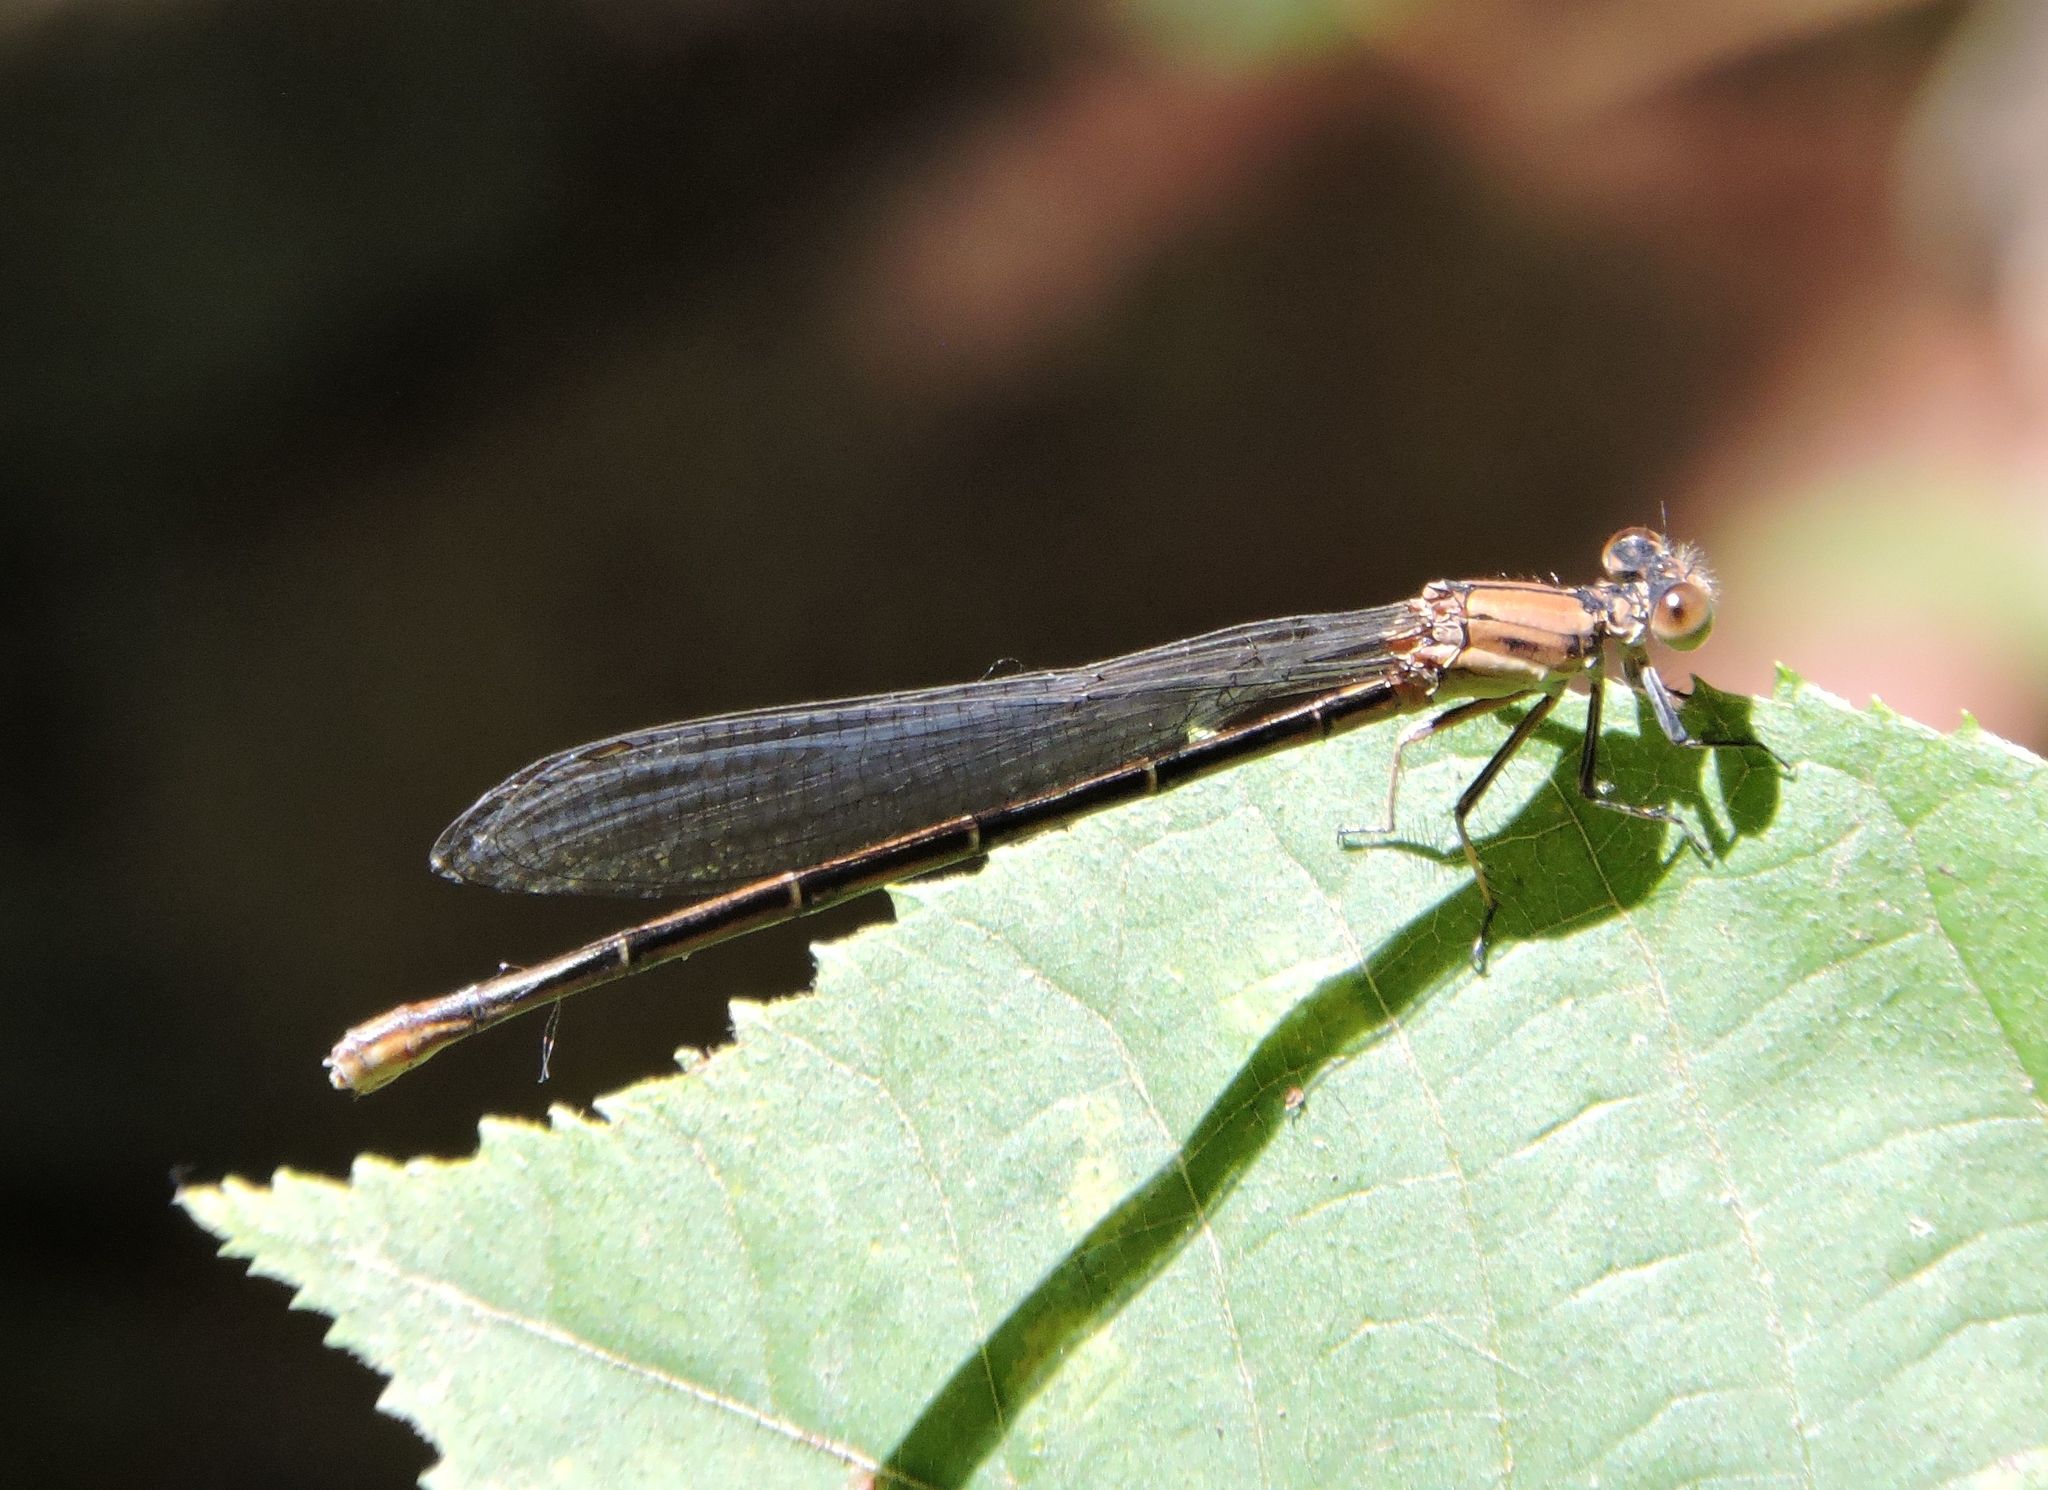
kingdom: Animalia
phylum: Arthropoda
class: Insecta
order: Odonata
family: Coenagrionidae
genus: Argia
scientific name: Argia apicalis
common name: Blue-fronted dancer
